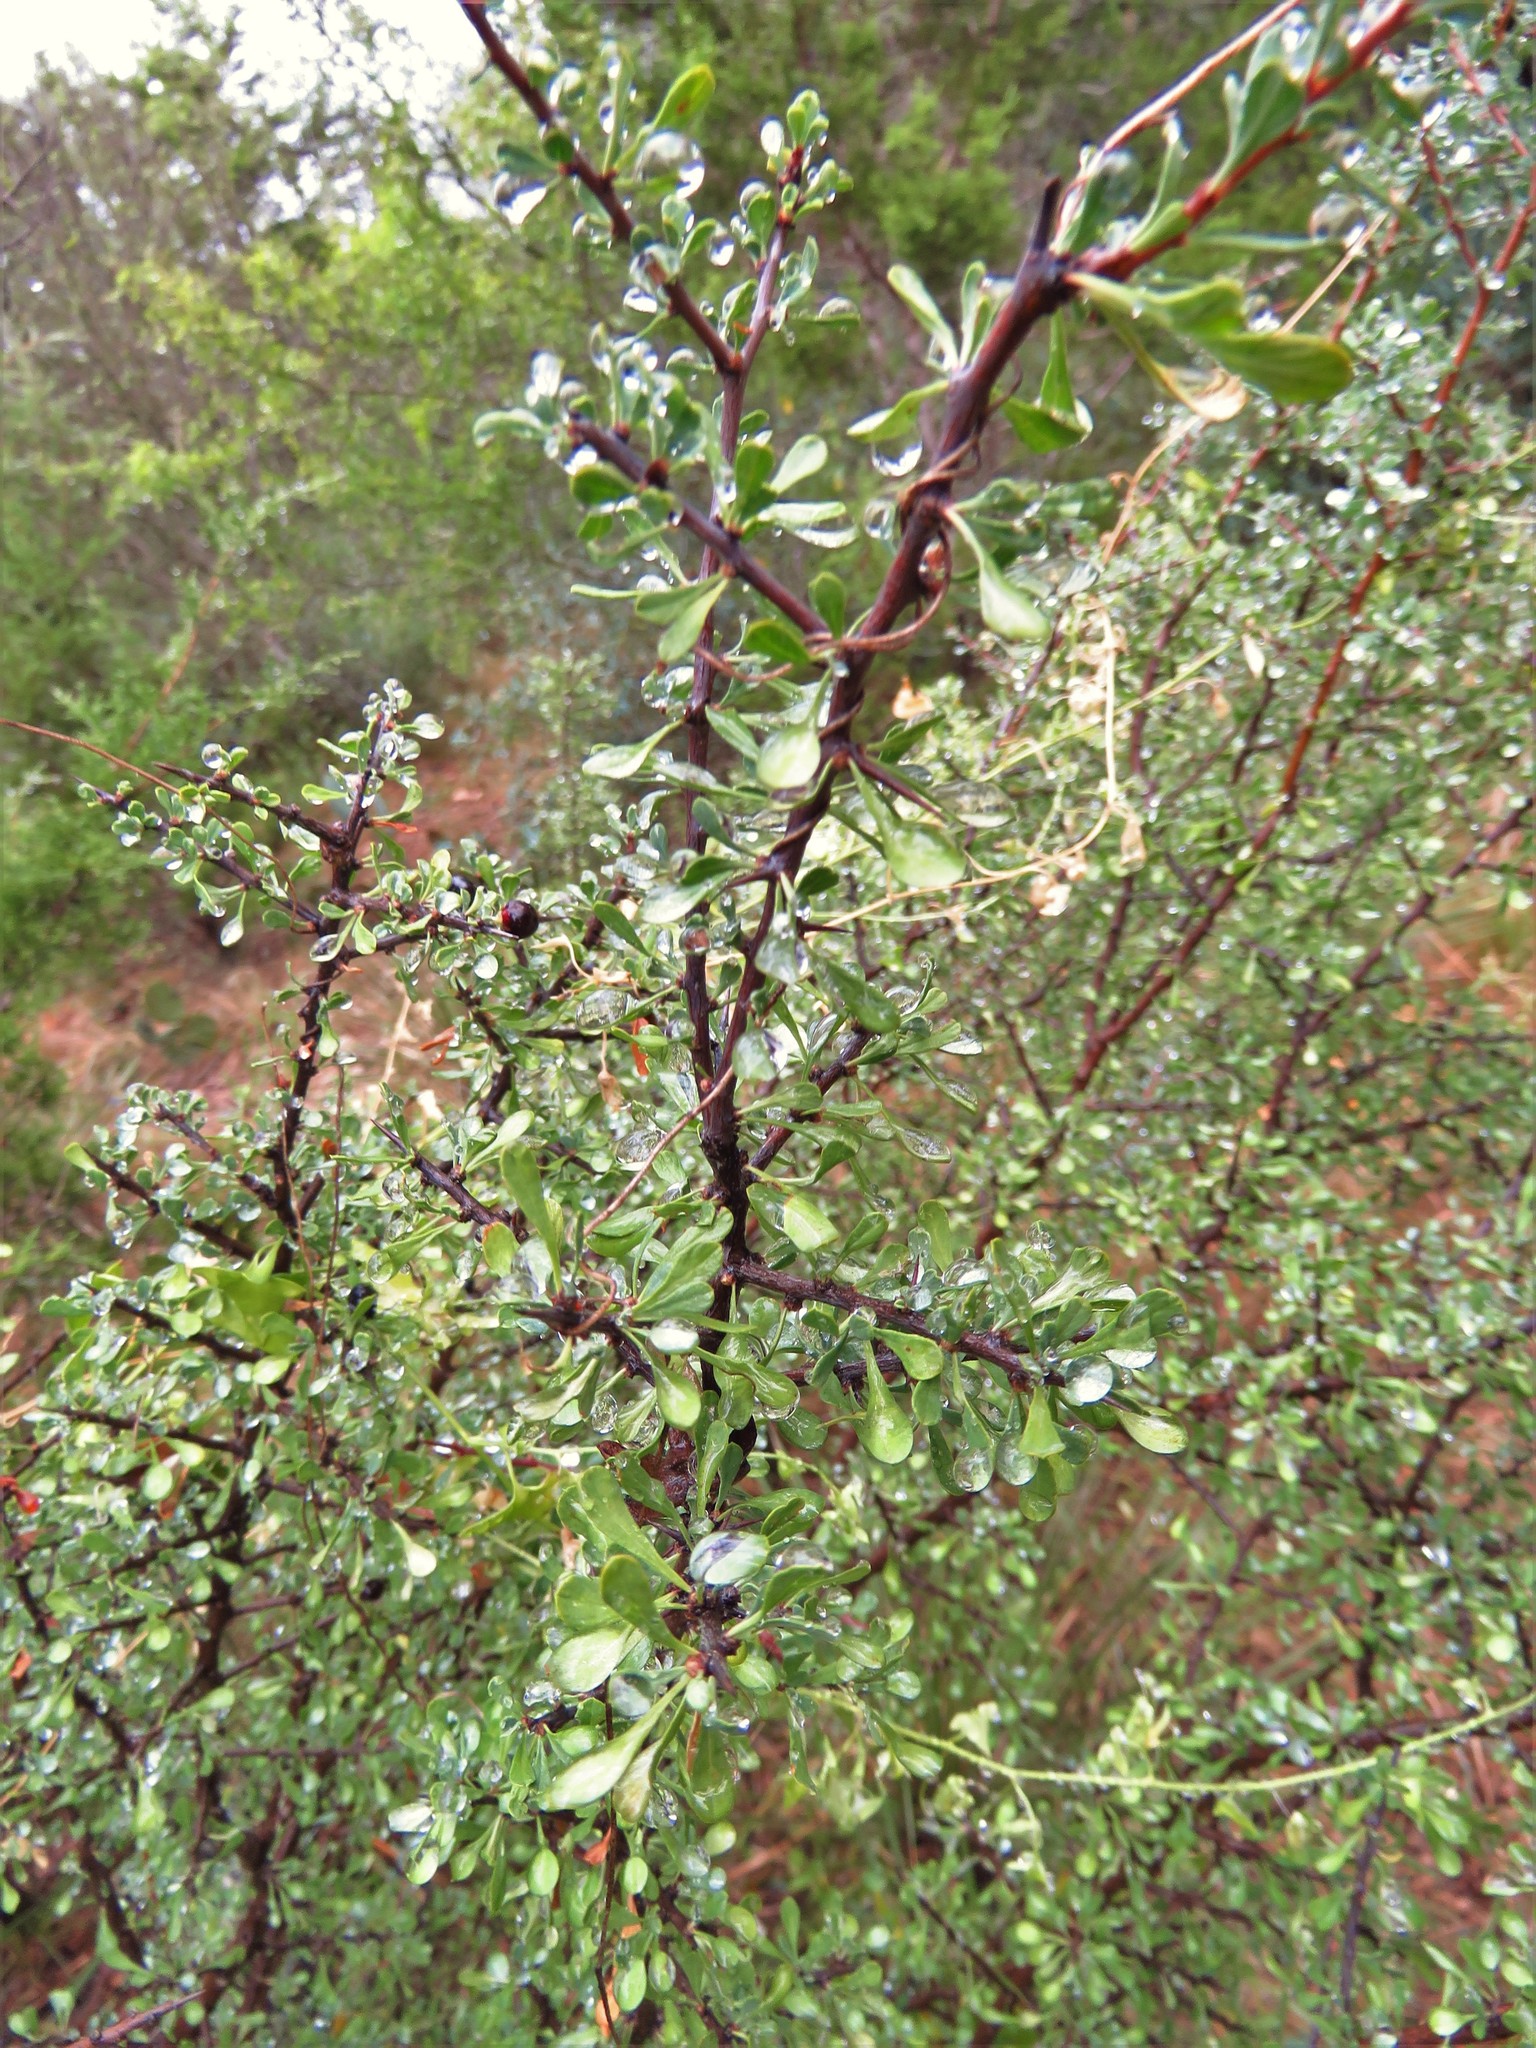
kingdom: Plantae
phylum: Tracheophyta
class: Magnoliopsida
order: Rosales
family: Rhamnaceae
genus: Condalia
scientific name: Condalia viridis
